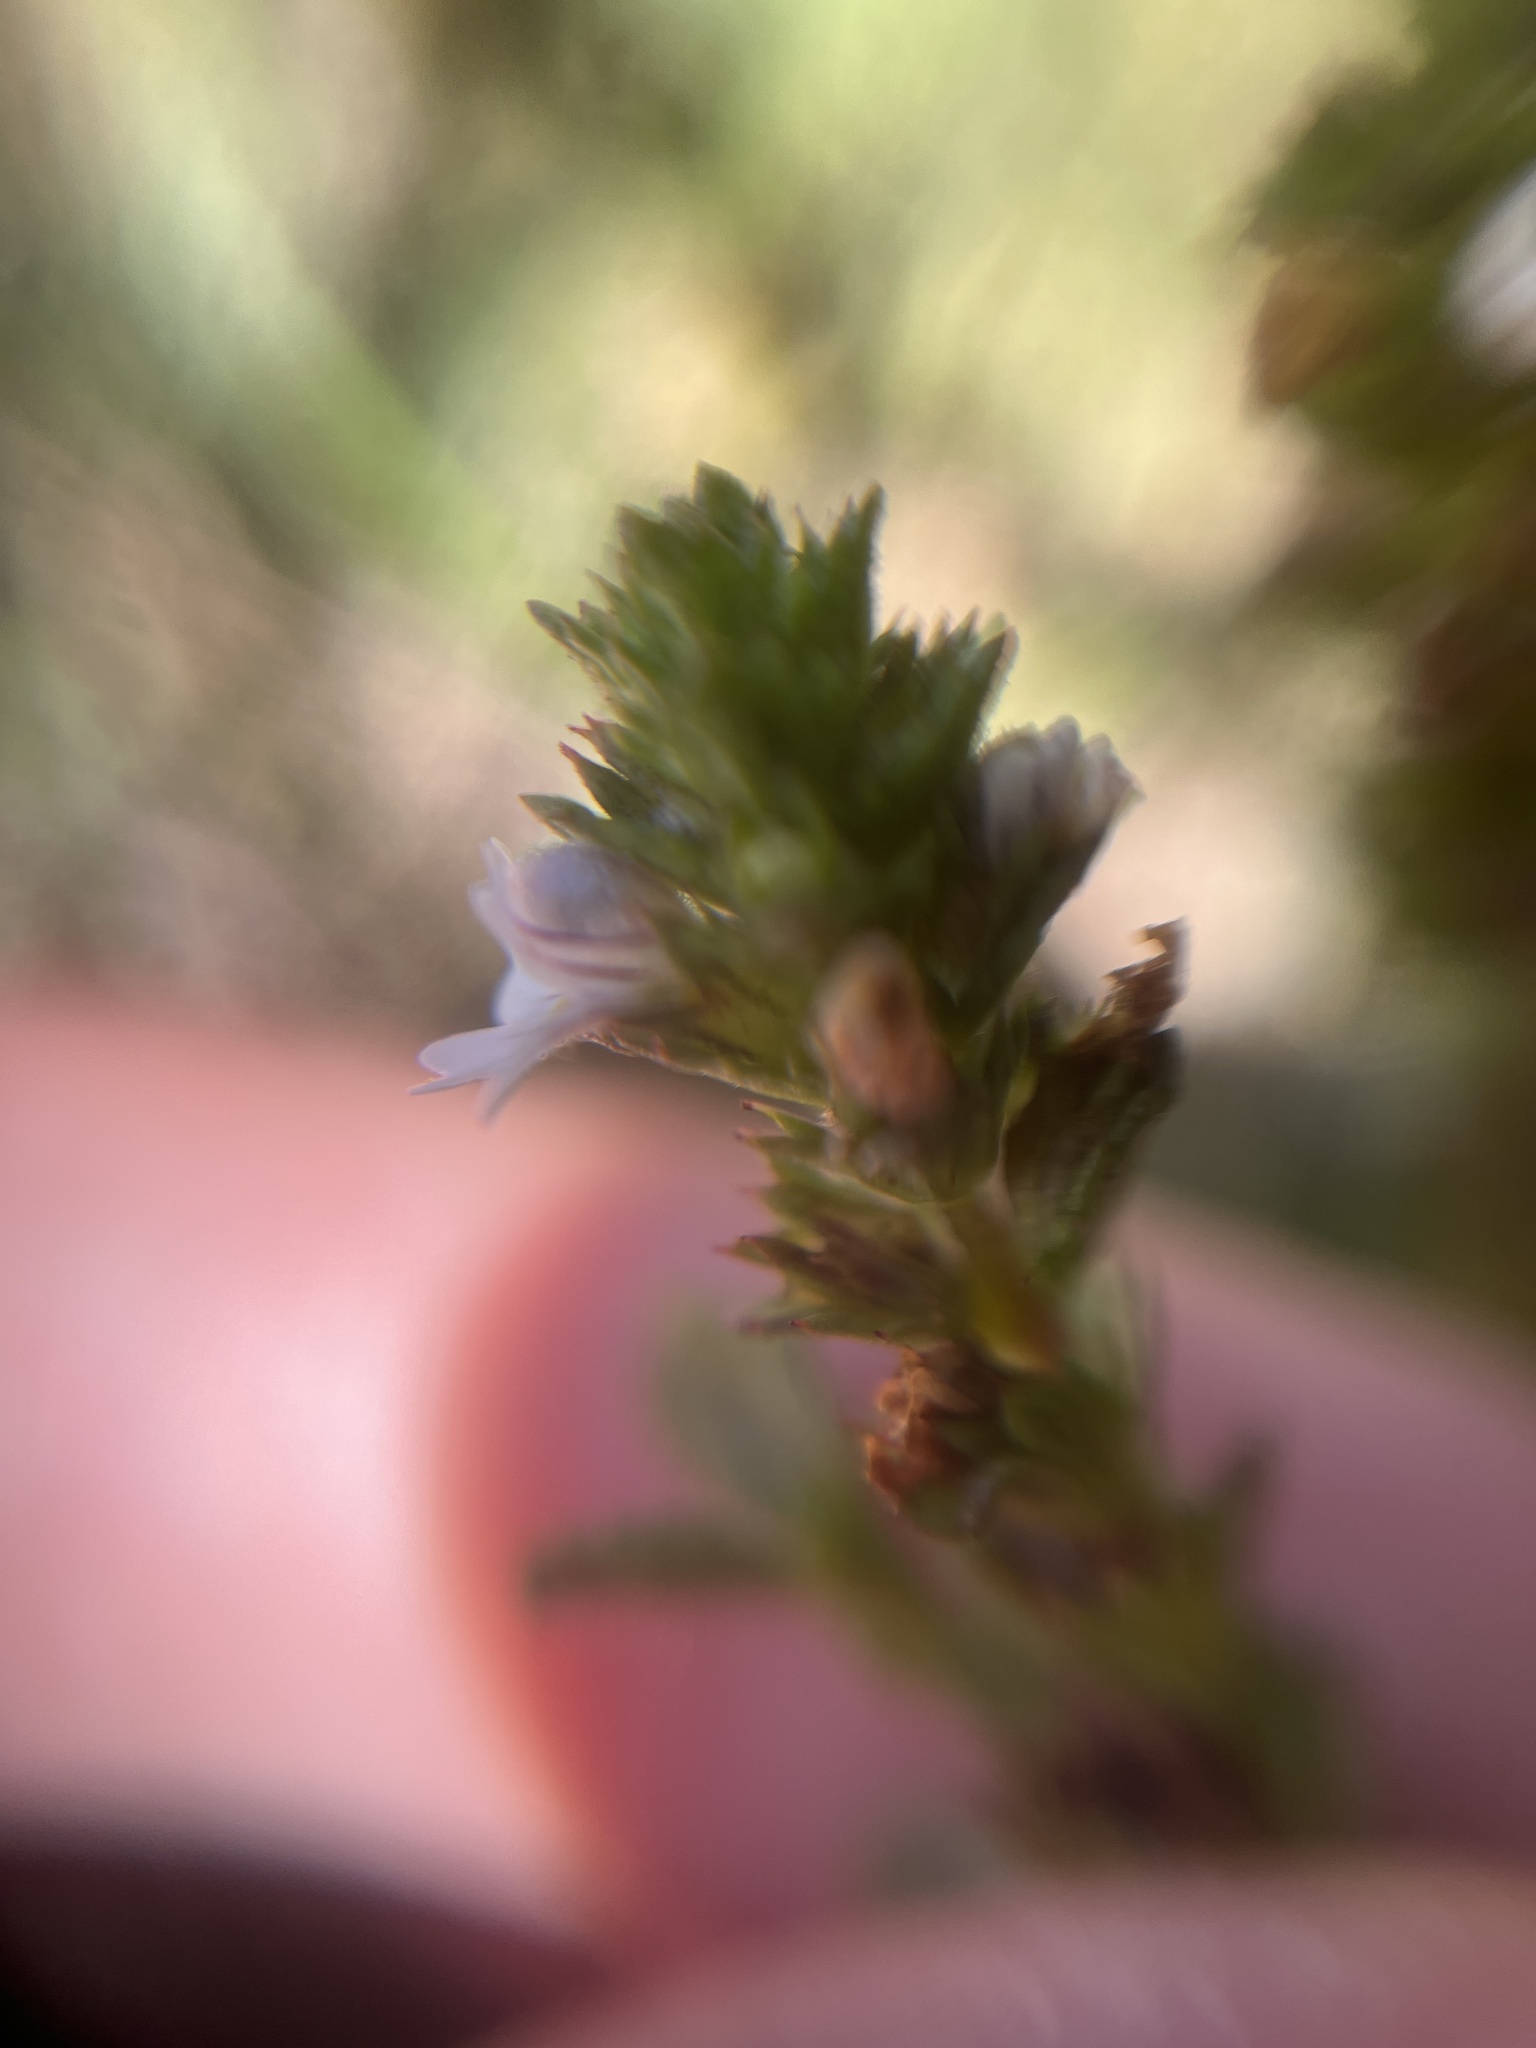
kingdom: Plantae
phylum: Tracheophyta
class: Magnoliopsida
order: Lamiales
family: Orobanchaceae
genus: Euphrasia
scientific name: Euphrasia nemorosa
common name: Common eyebright
